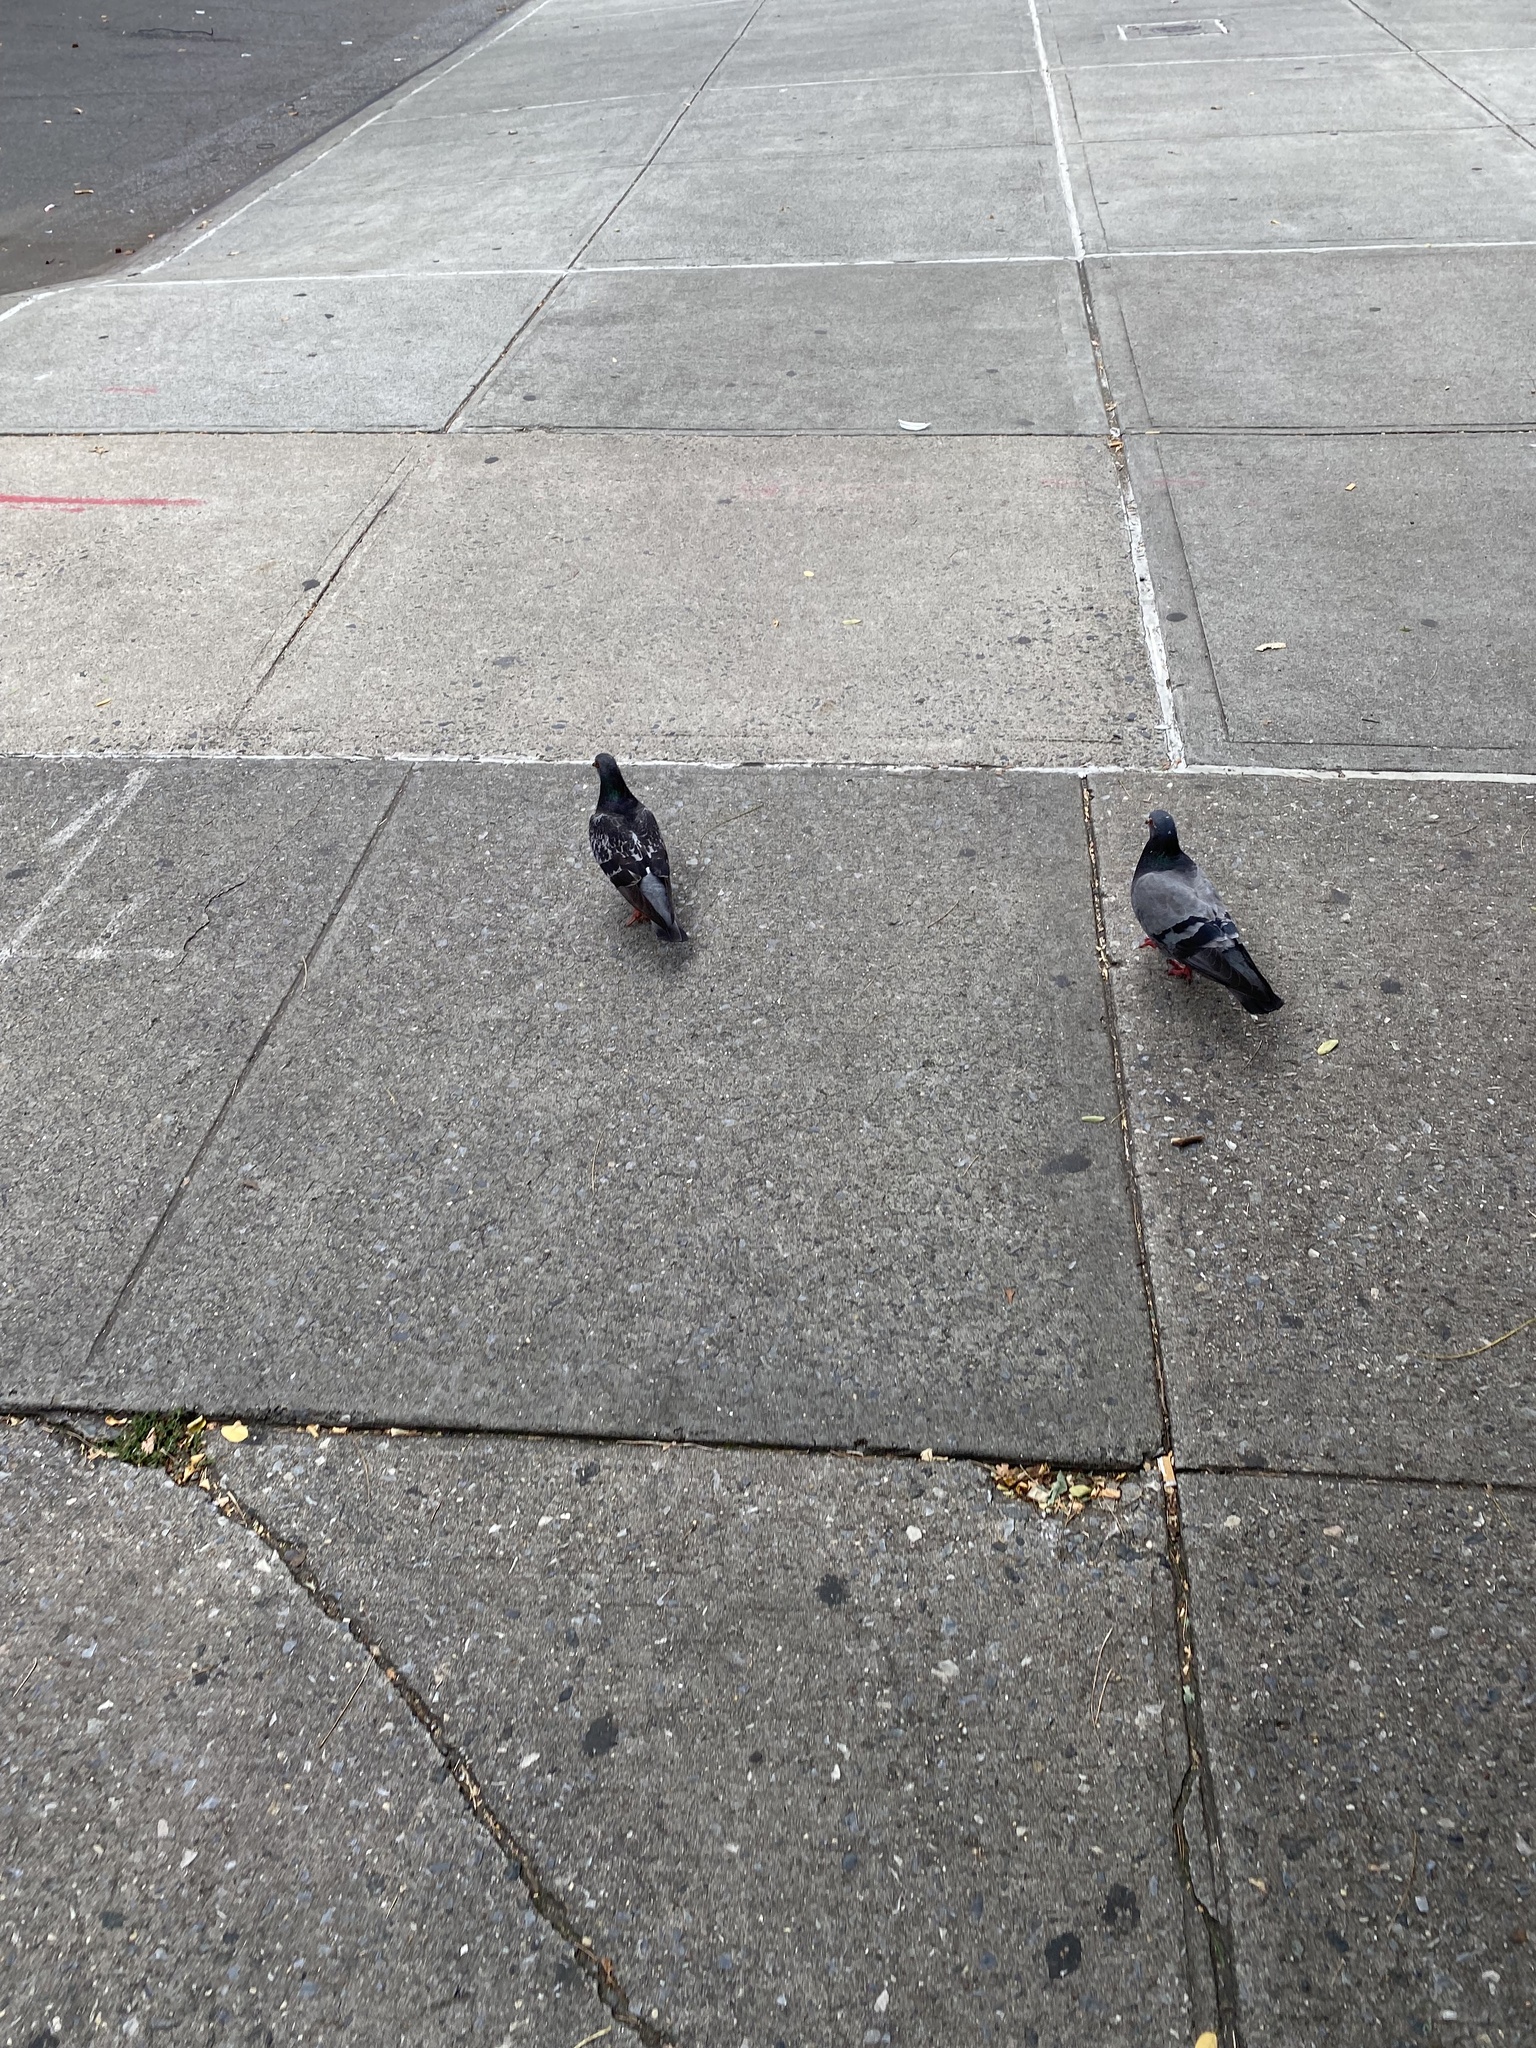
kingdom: Animalia
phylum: Chordata
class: Aves
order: Columbiformes
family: Columbidae
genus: Columba
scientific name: Columba livia
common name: Rock pigeon
